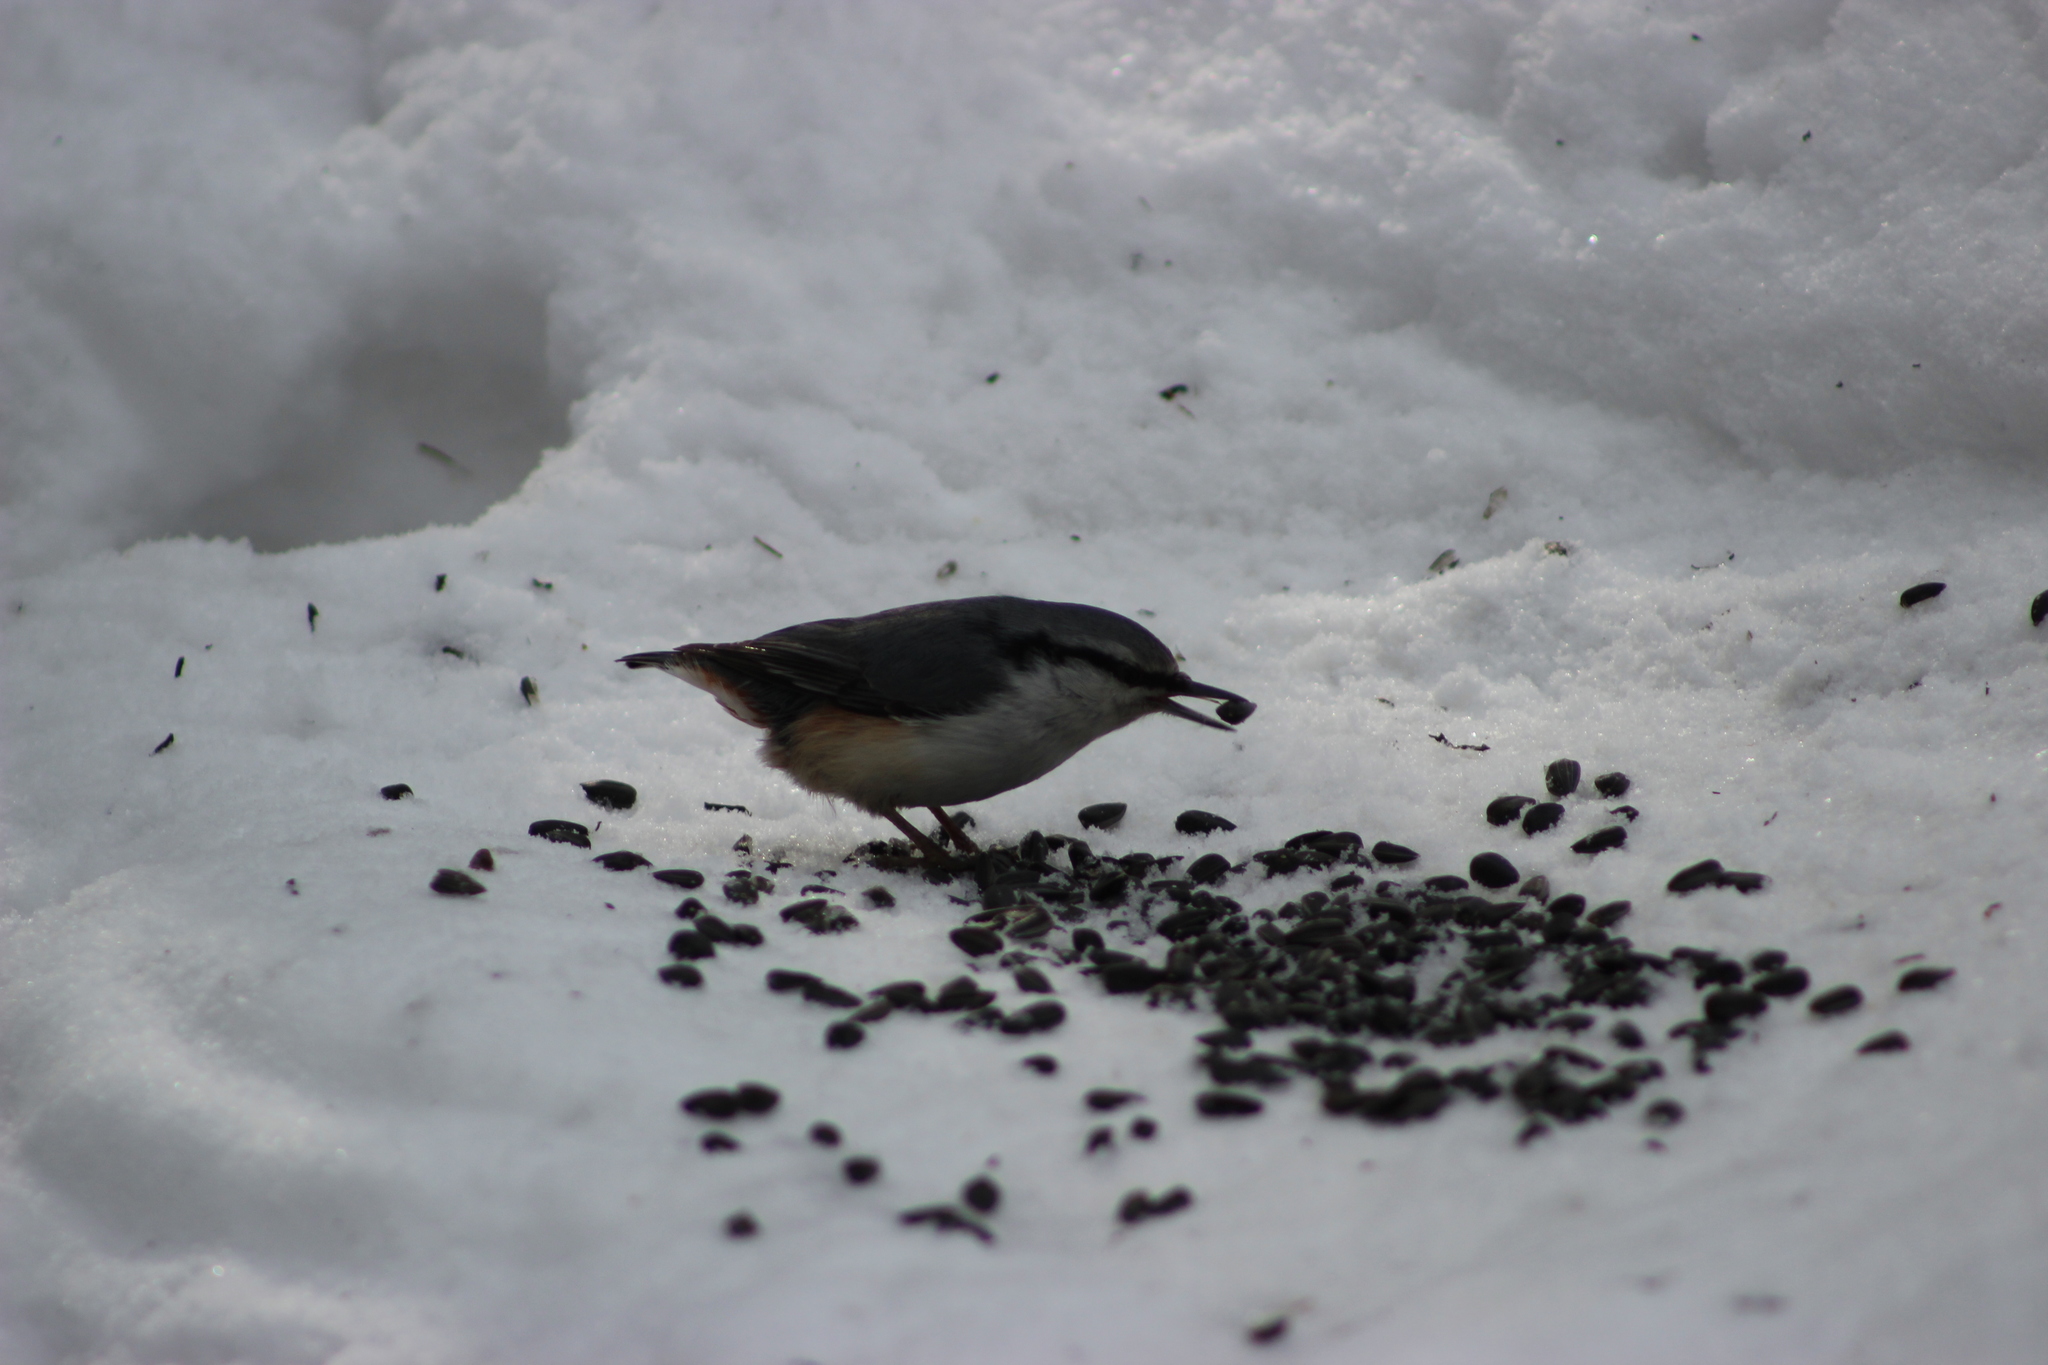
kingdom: Animalia
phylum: Chordata
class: Aves
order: Passeriformes
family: Sittidae
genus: Sitta
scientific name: Sitta europaea
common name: Eurasian nuthatch
